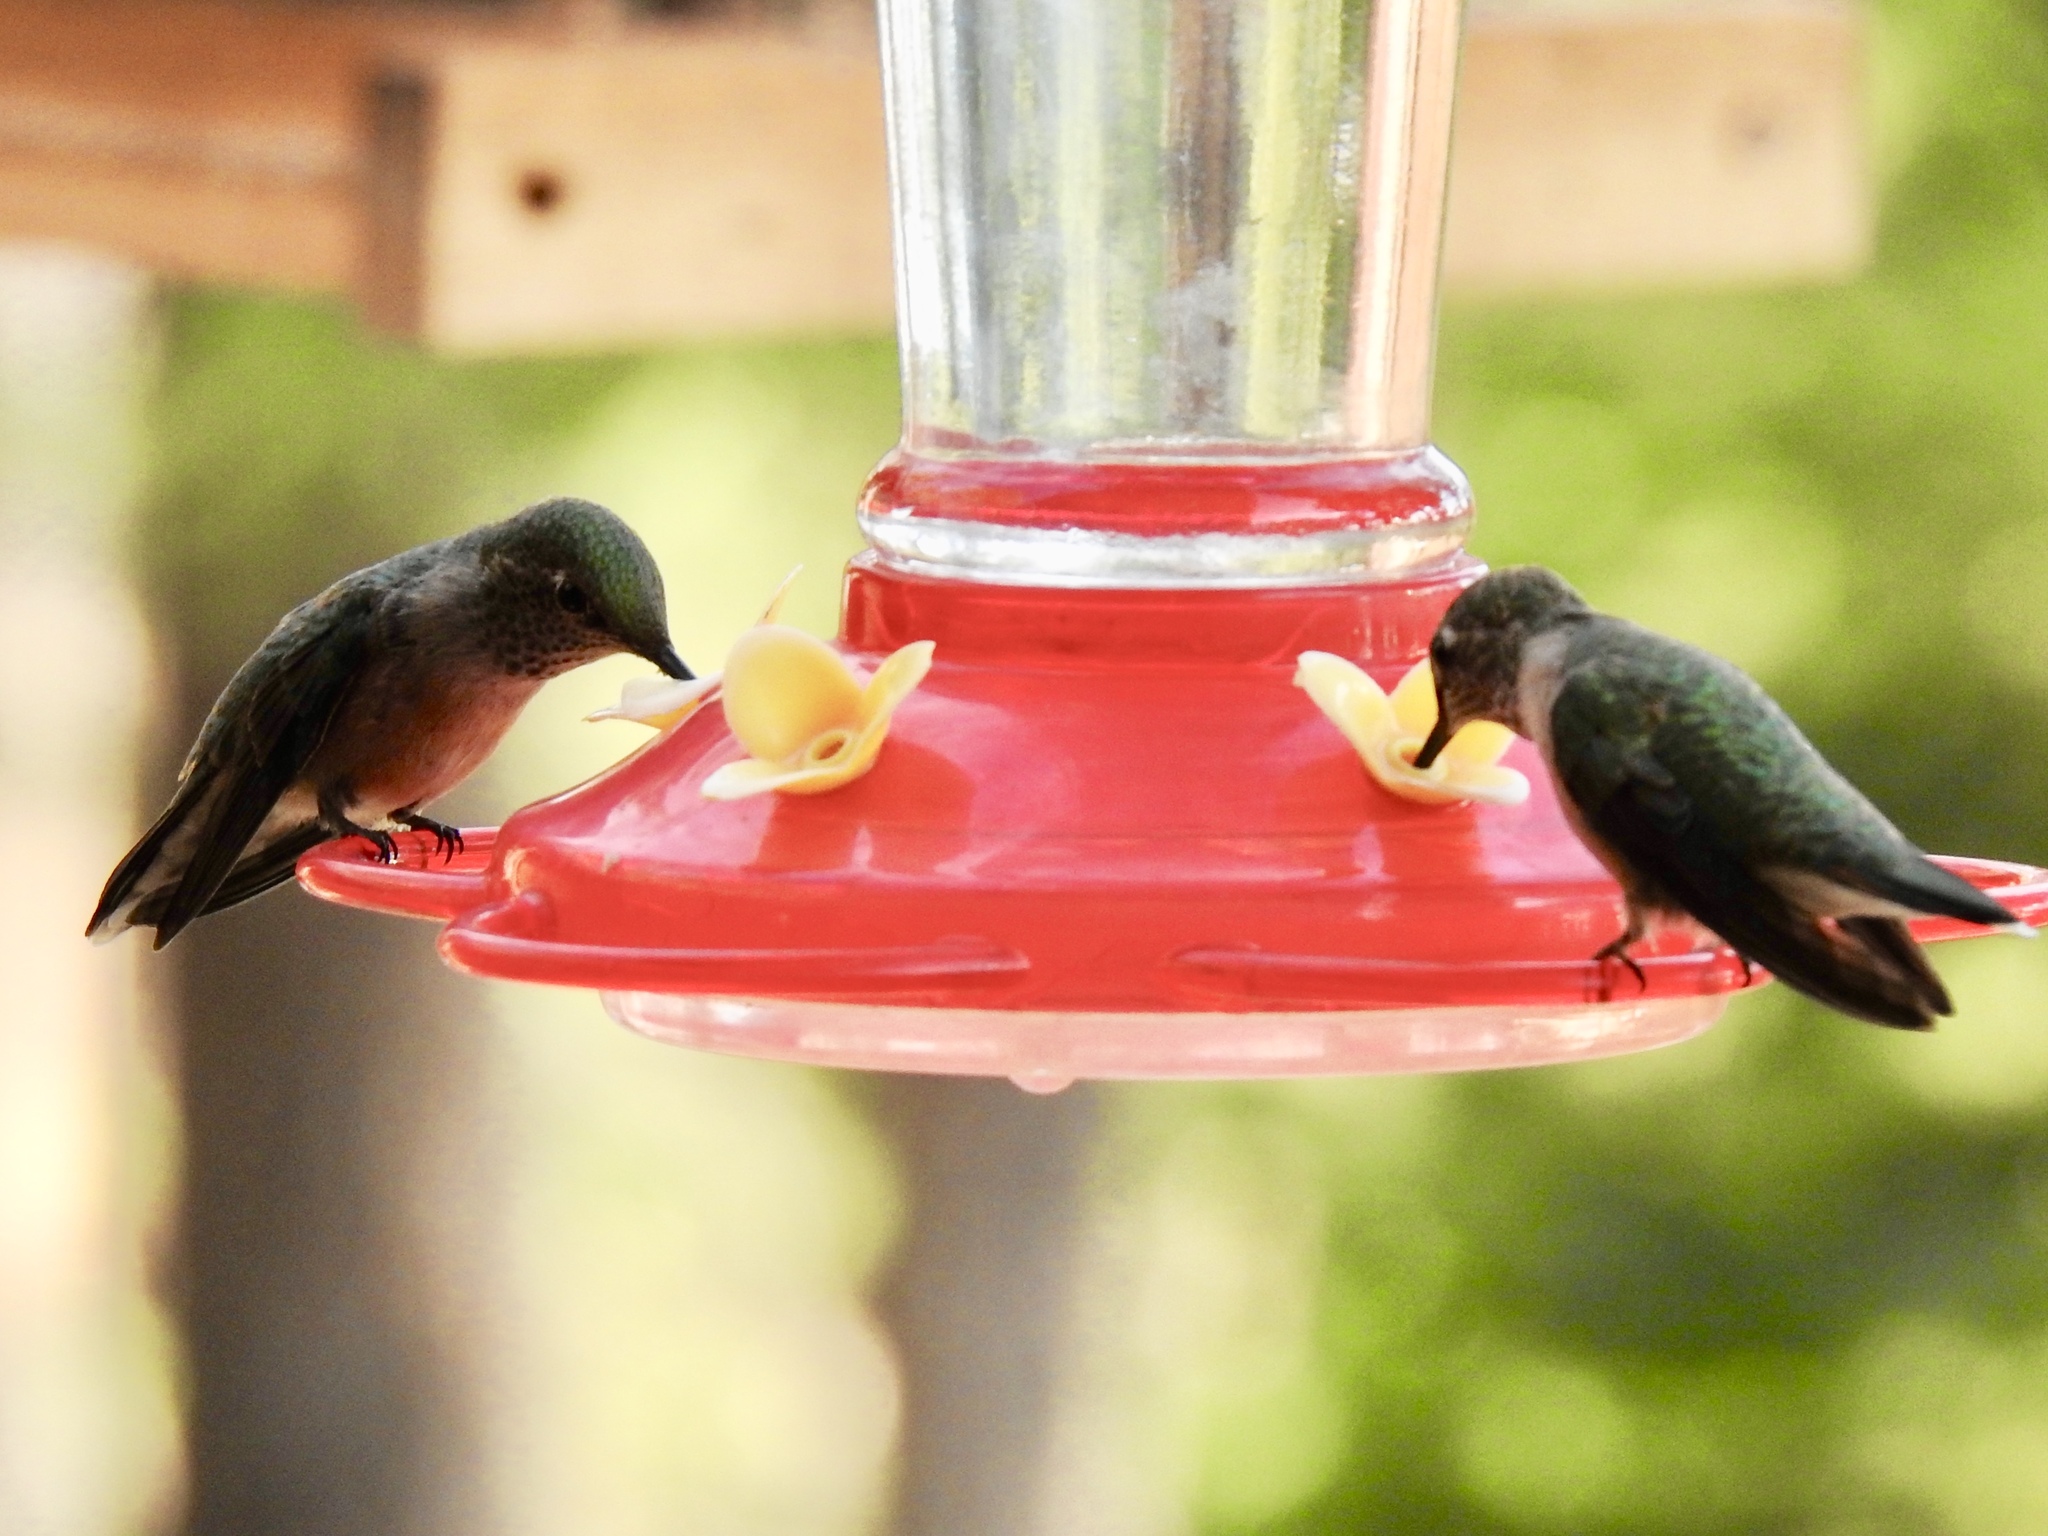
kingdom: Animalia
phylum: Chordata
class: Aves
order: Apodiformes
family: Trochilidae
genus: Selasphorus
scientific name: Selasphorus platycercus
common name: Broad-tailed hummingbird
